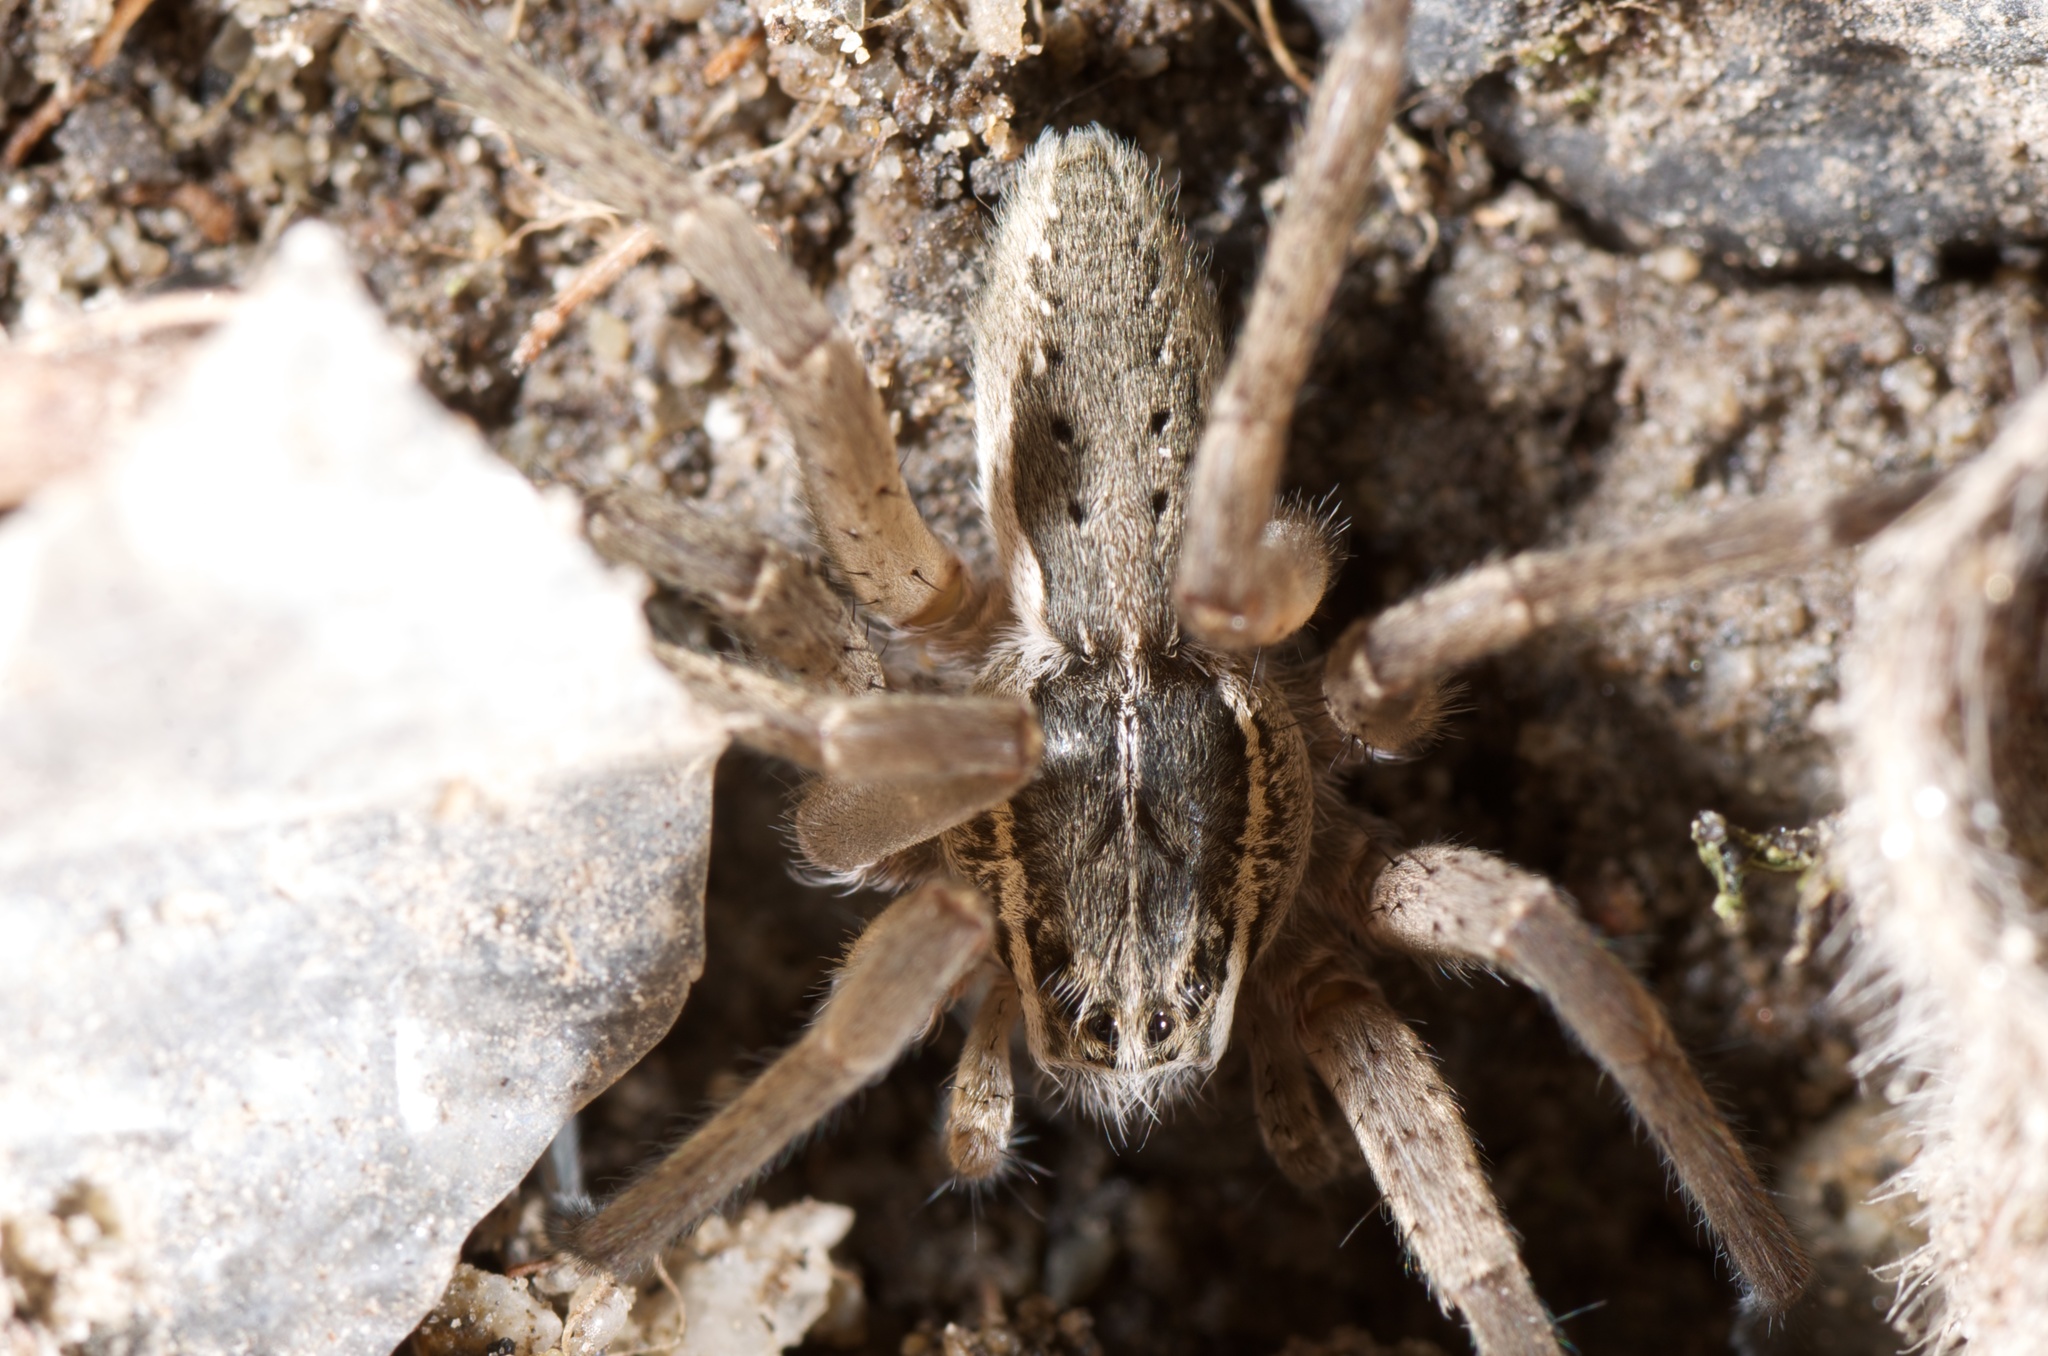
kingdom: Animalia
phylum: Arthropoda
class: Arachnida
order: Araneae
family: Pisauridae
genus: Dolomedes
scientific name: Dolomedes aquaticus
